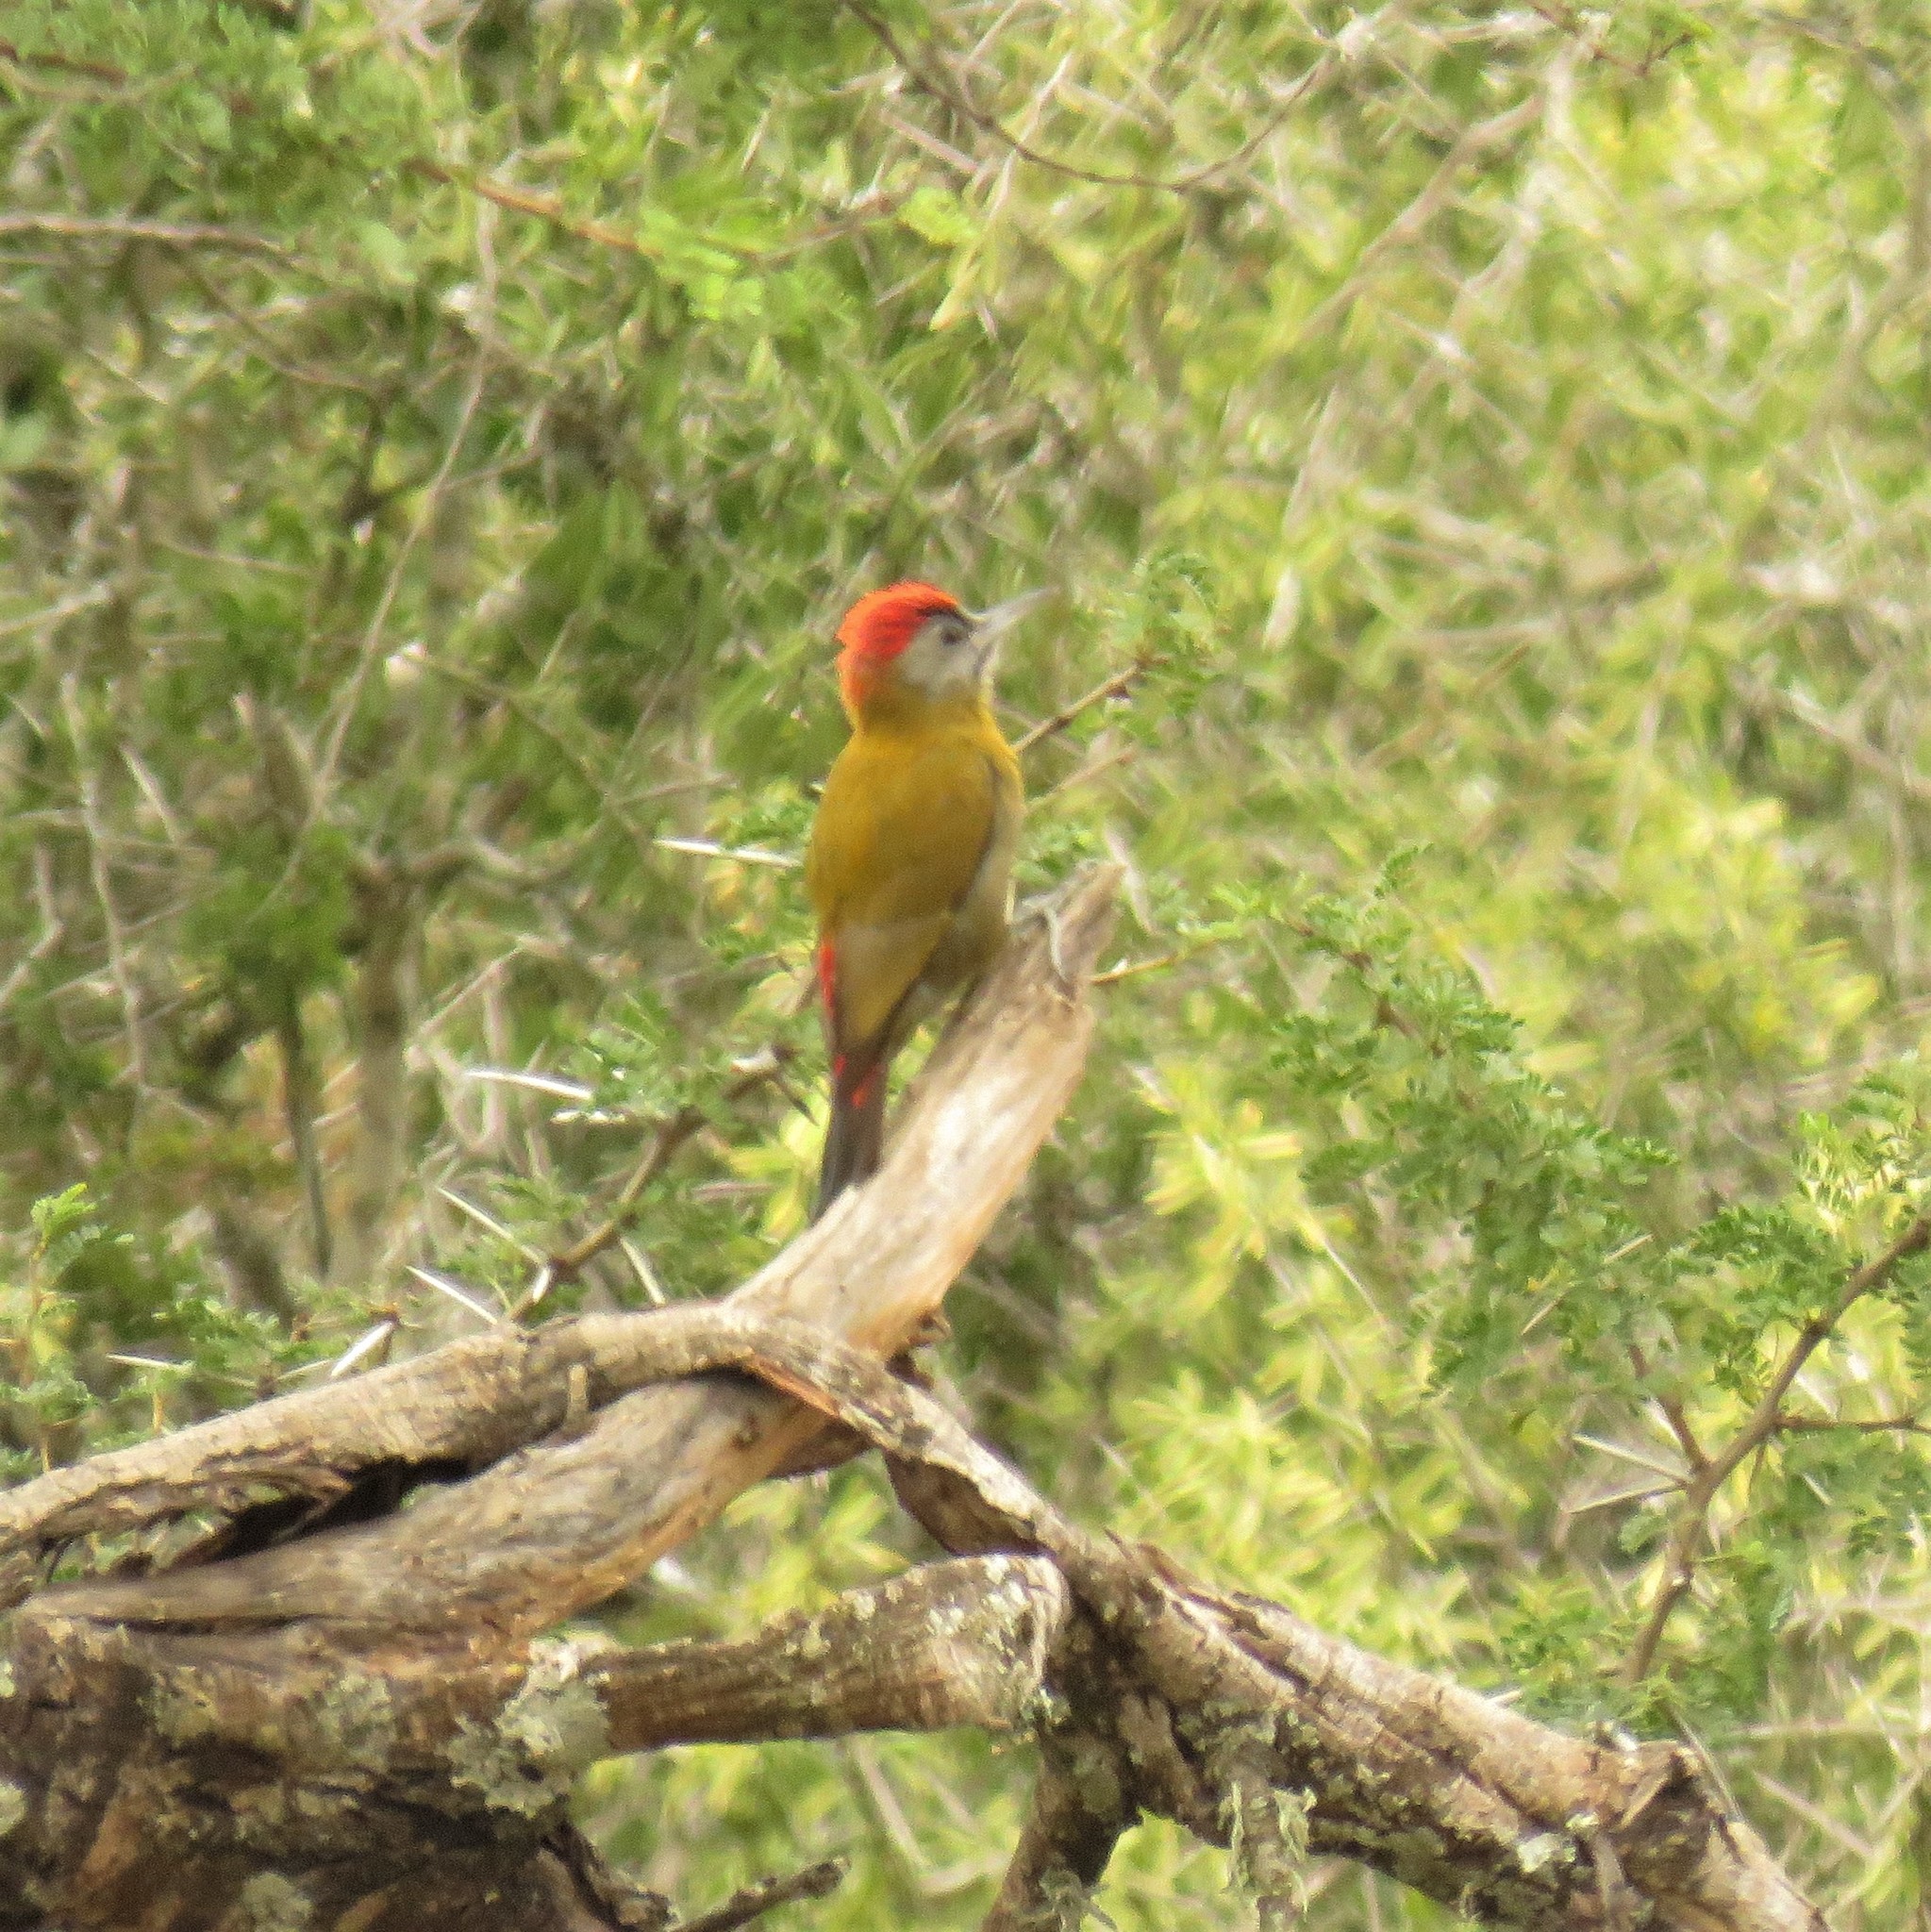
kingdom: Animalia
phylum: Chordata
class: Aves
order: Piciformes
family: Picidae
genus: Dendropicos
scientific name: Dendropicos griseocephalus
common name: Olive woodpecker
